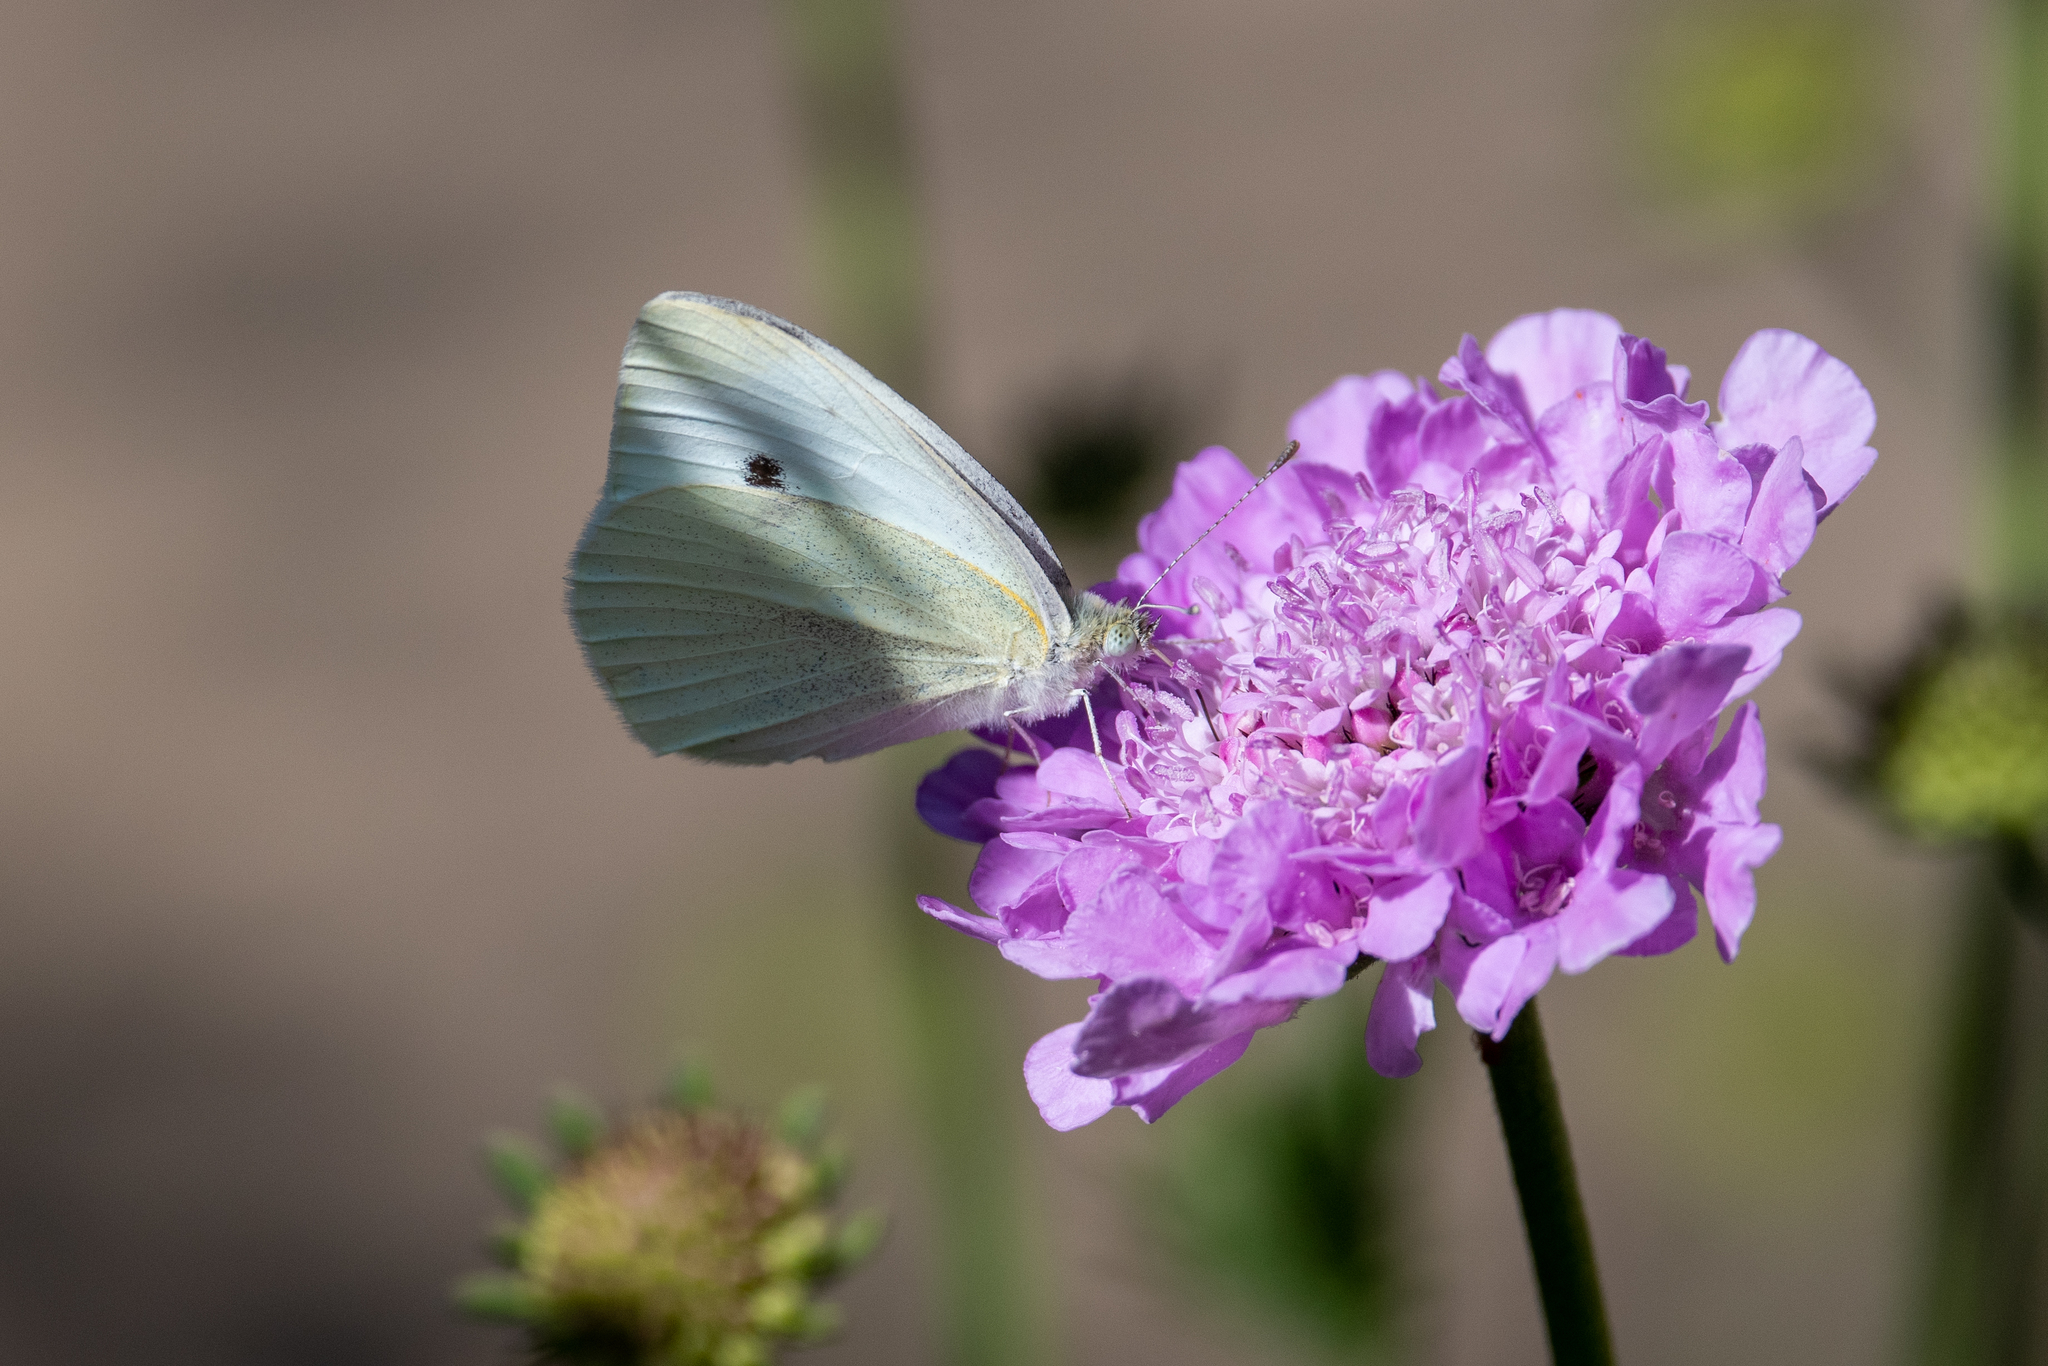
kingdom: Animalia
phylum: Arthropoda
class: Insecta
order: Lepidoptera
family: Pieridae
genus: Pieris
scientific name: Pieris rapae
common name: Small white
